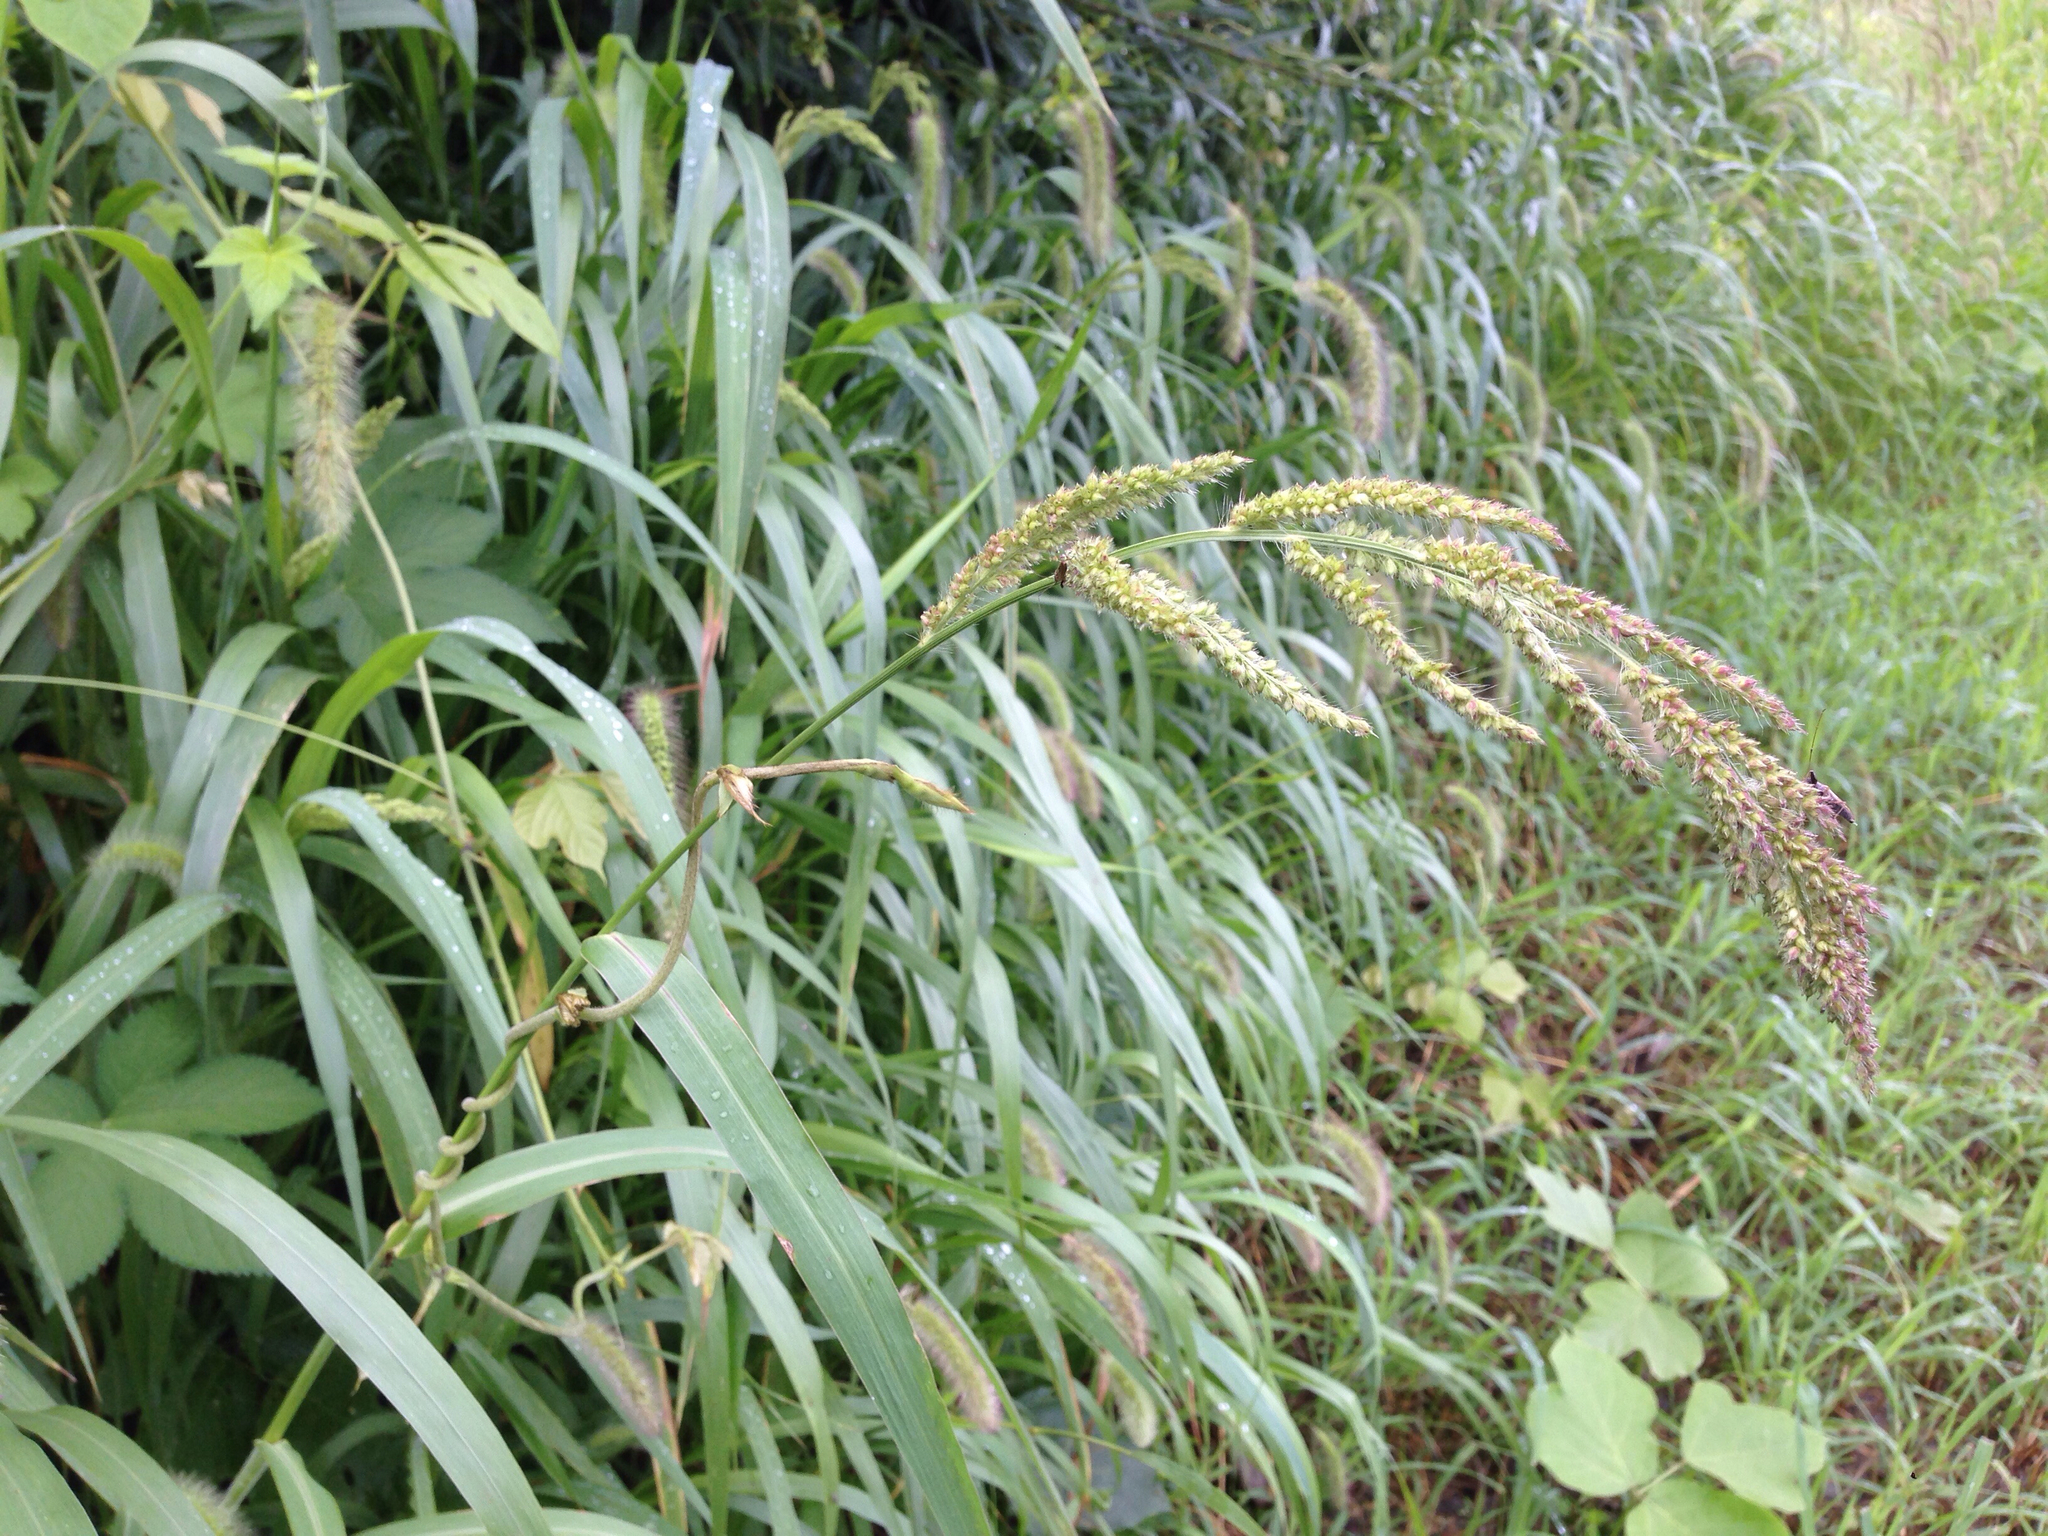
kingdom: Plantae
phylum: Tracheophyta
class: Liliopsida
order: Poales
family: Poaceae
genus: Echinochloa
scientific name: Echinochloa crus-galli
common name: Cockspur
